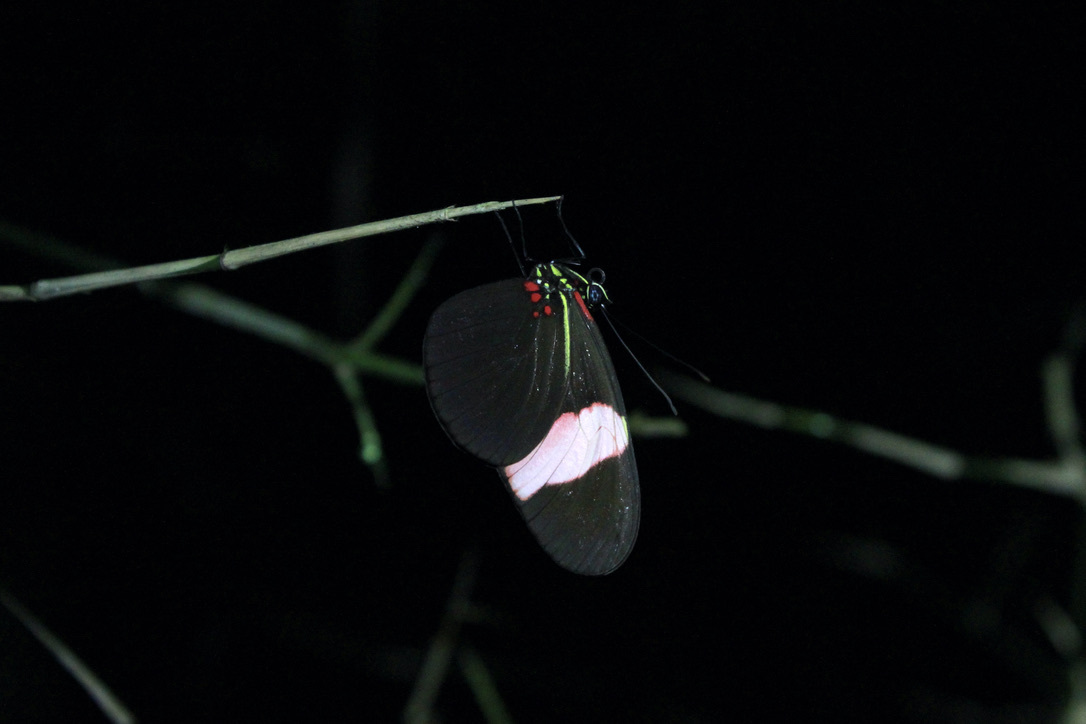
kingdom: Animalia
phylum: Arthropoda
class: Insecta
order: Lepidoptera
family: Nymphalidae
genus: Heliconius
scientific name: Heliconius erato
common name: Common patch longwing
